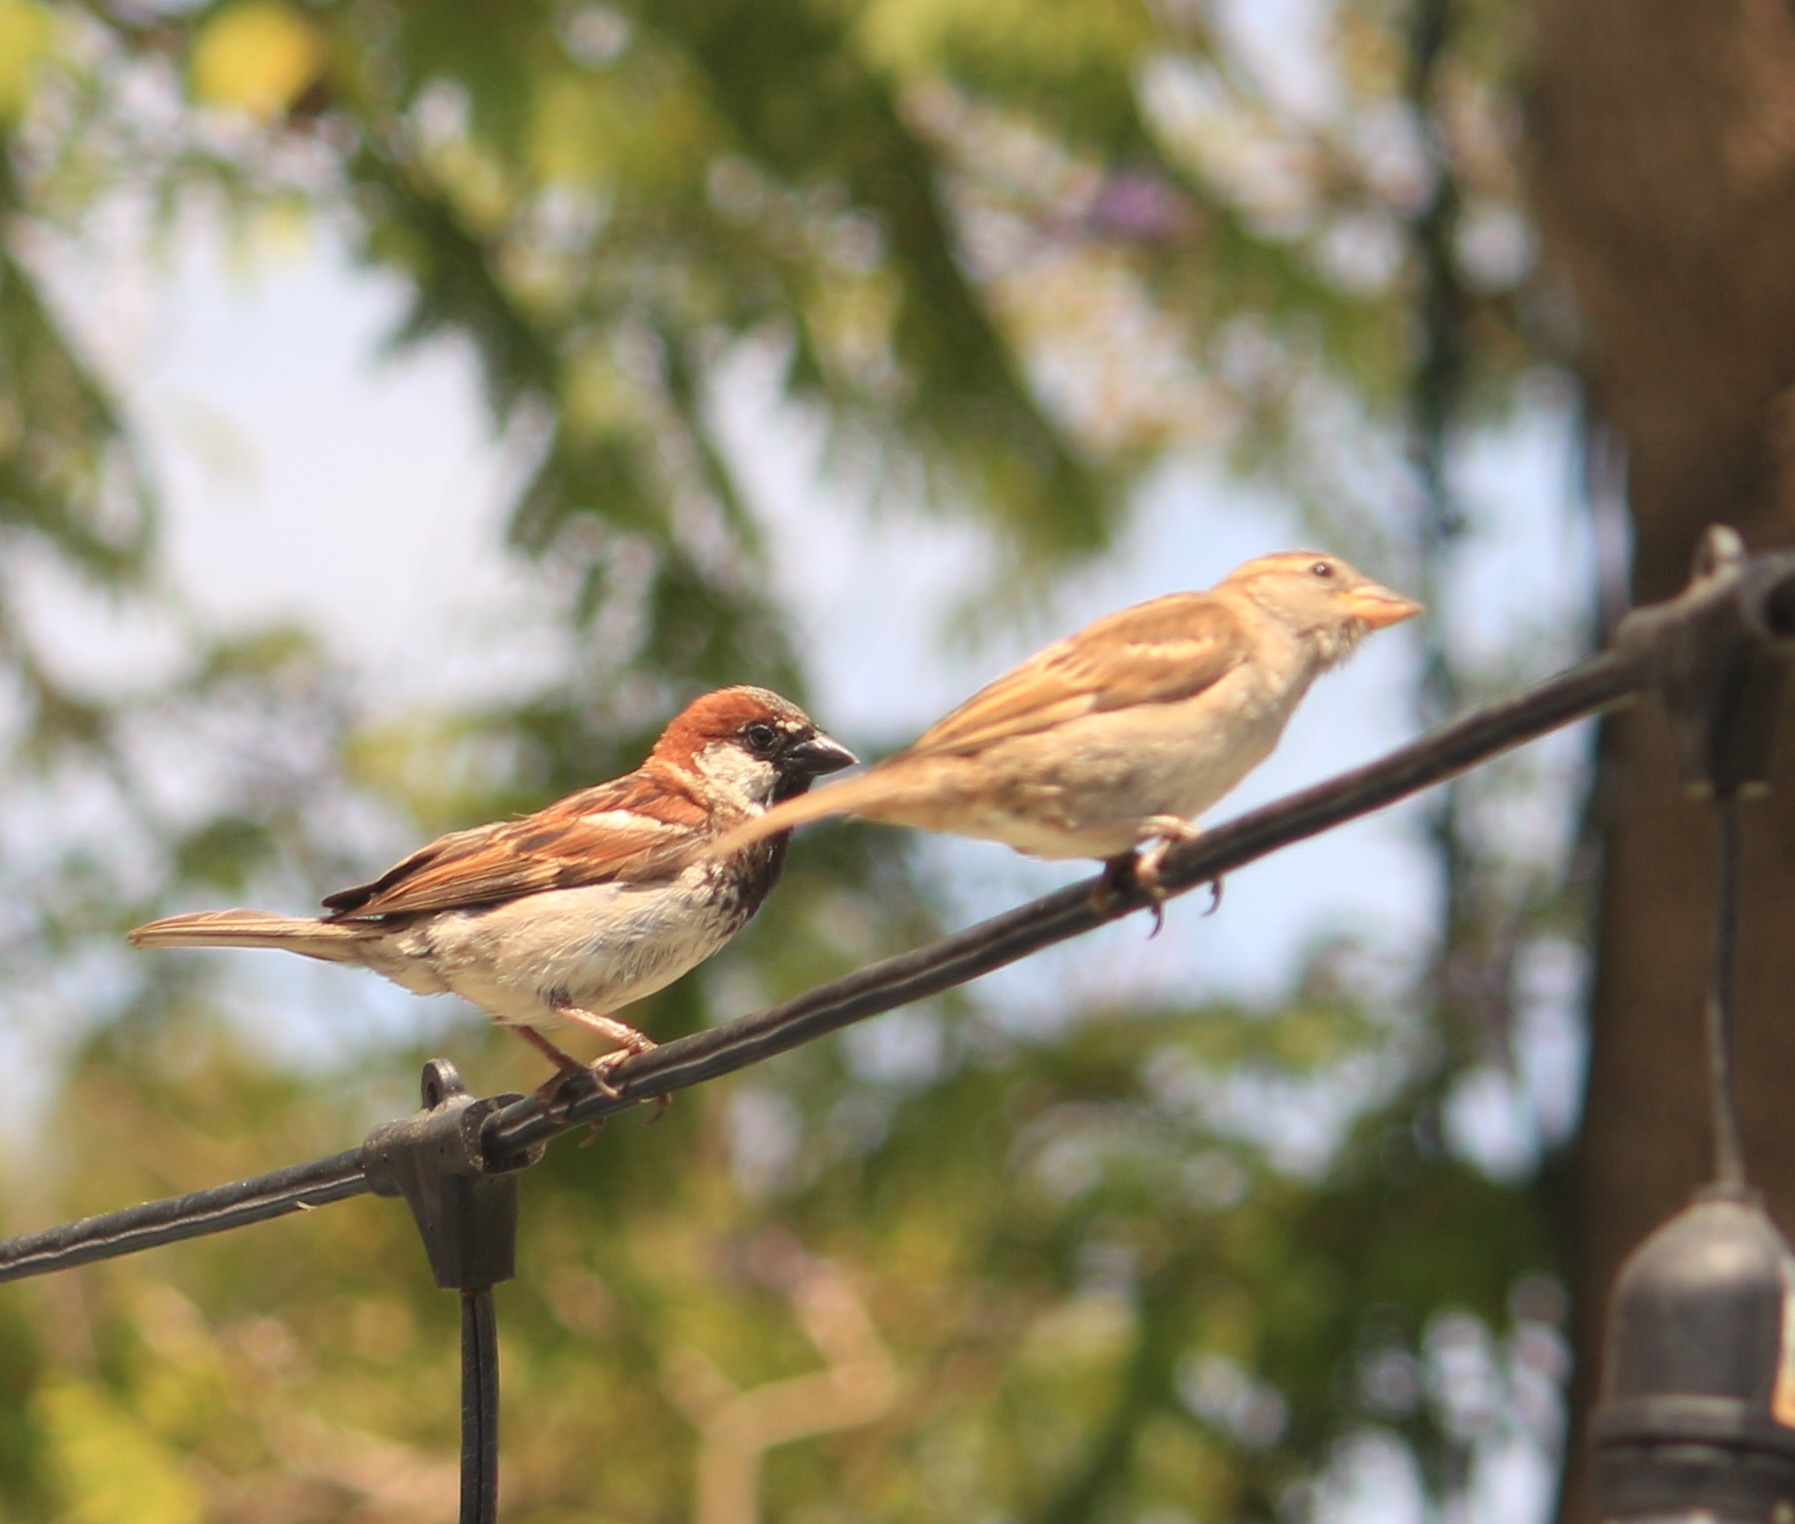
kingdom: Animalia
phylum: Chordata
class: Aves
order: Passeriformes
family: Passeridae
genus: Passer
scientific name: Passer domesticus
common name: House sparrow
